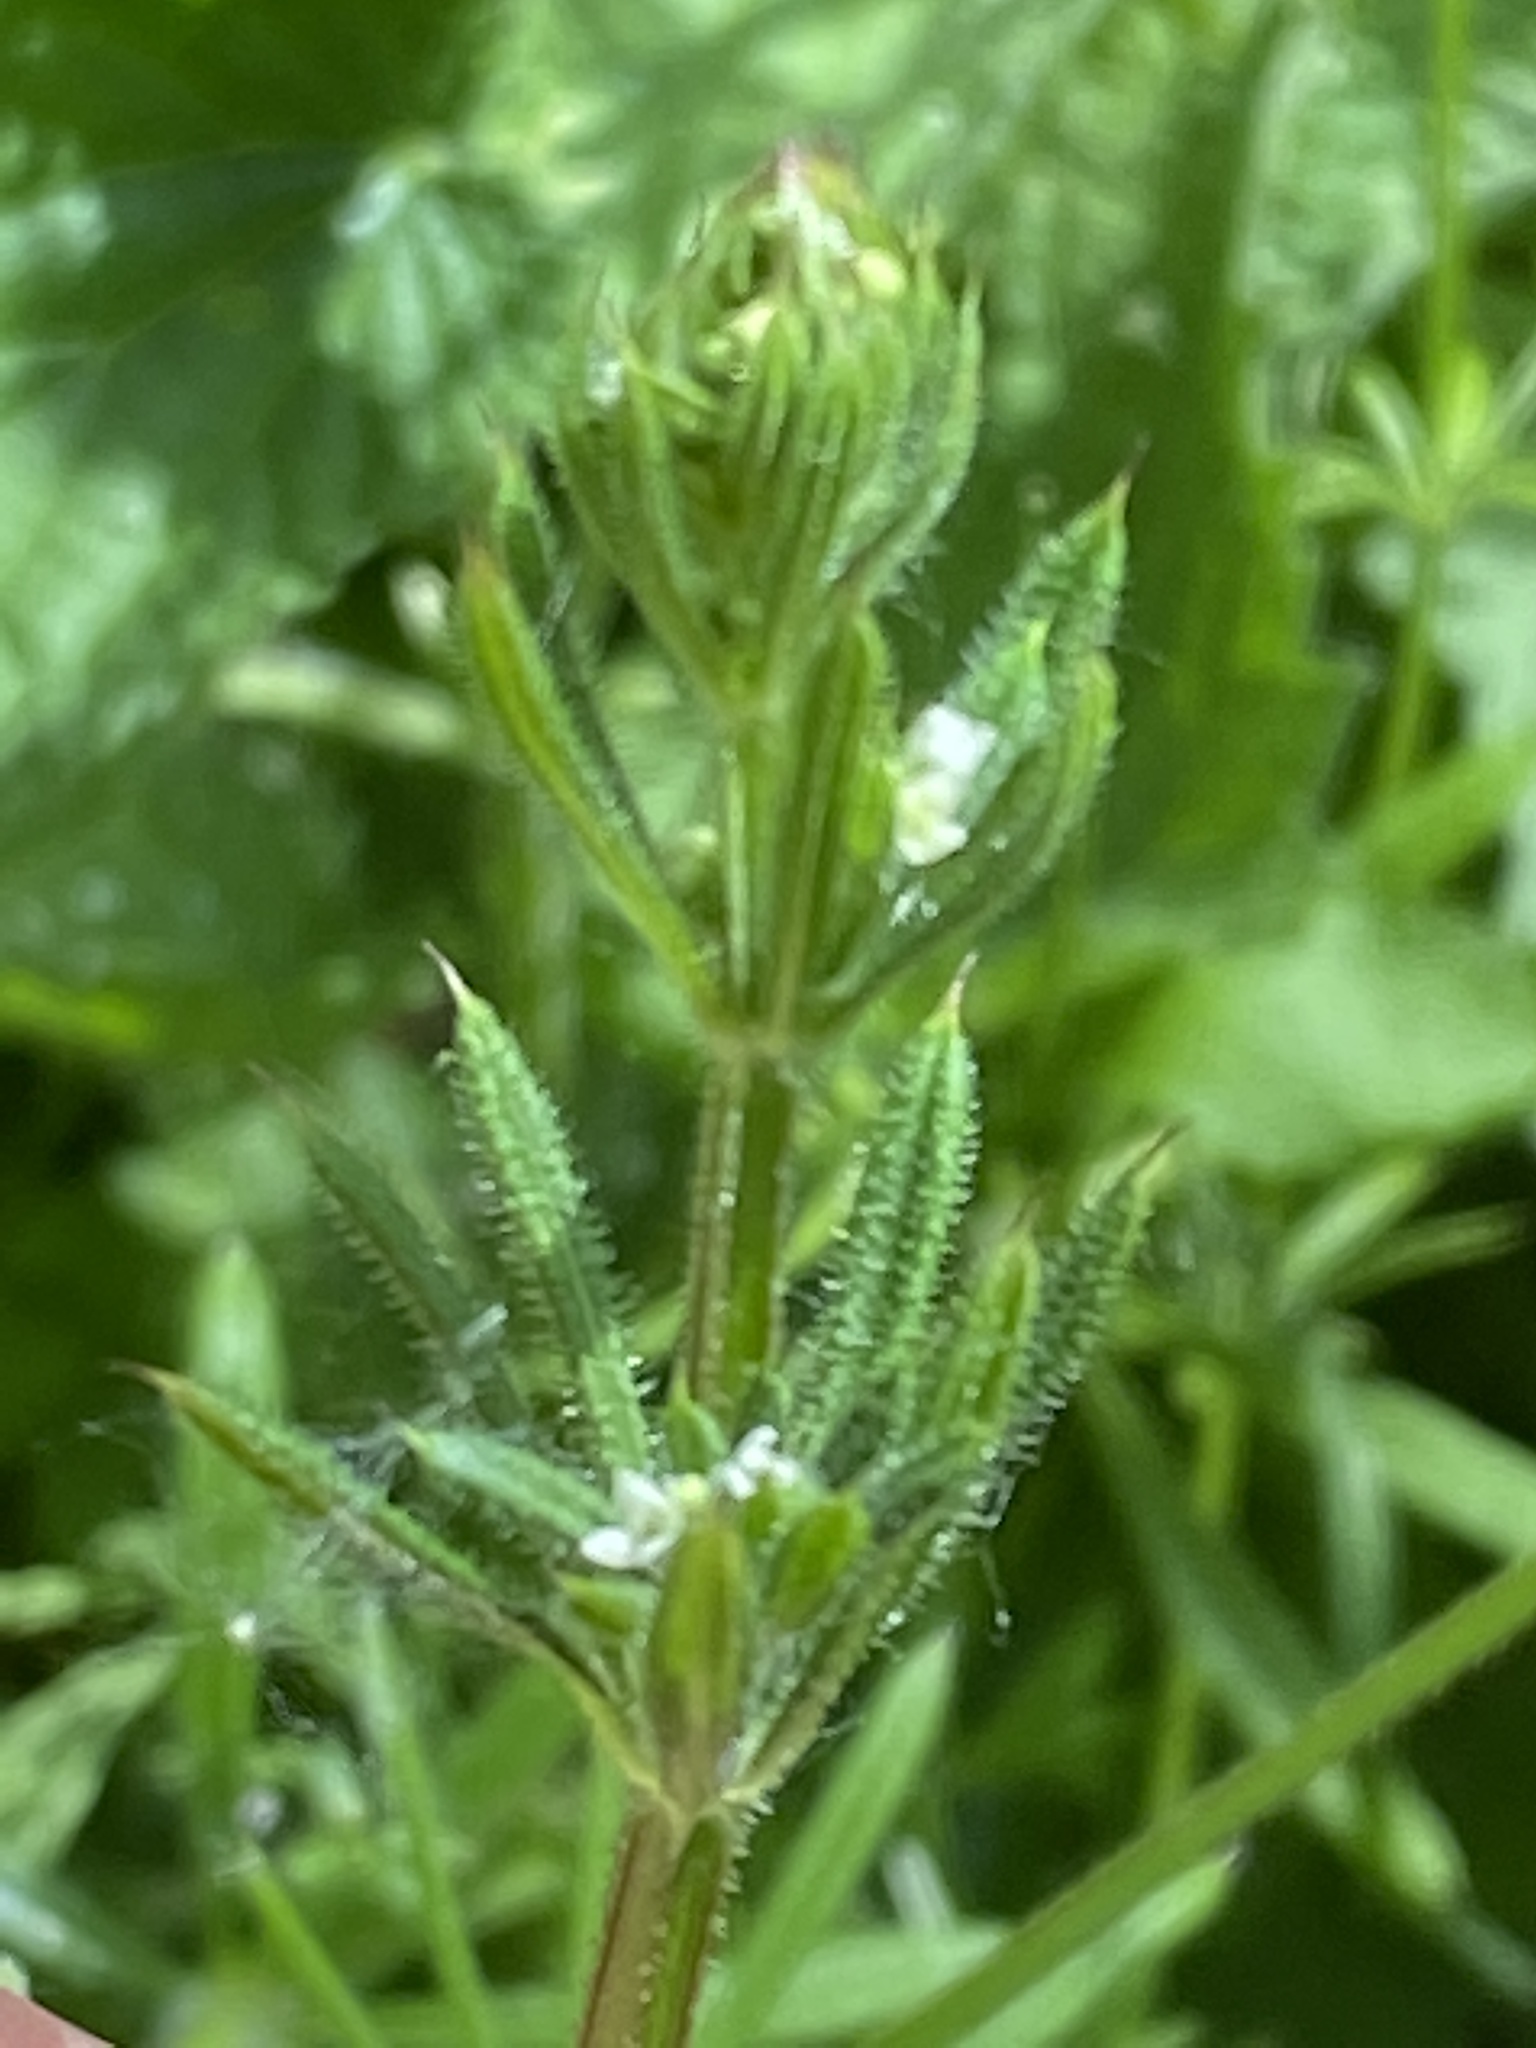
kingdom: Plantae
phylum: Tracheophyta
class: Magnoliopsida
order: Gentianales
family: Rubiaceae
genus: Galium
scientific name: Galium aparine
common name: Cleavers
